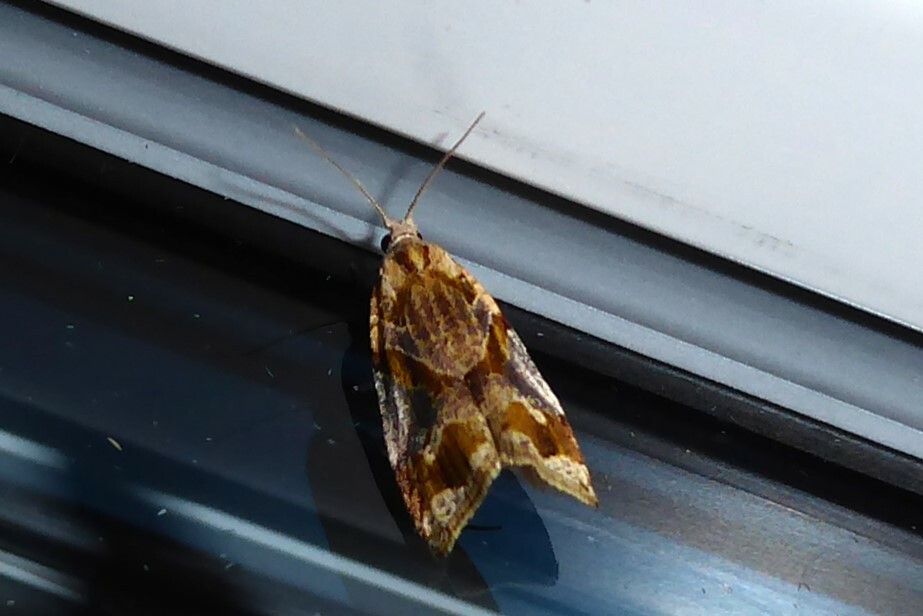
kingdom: Animalia
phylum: Arthropoda
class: Insecta
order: Lepidoptera
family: Tortricidae
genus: Pyrgotis
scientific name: Pyrgotis plagiatana
